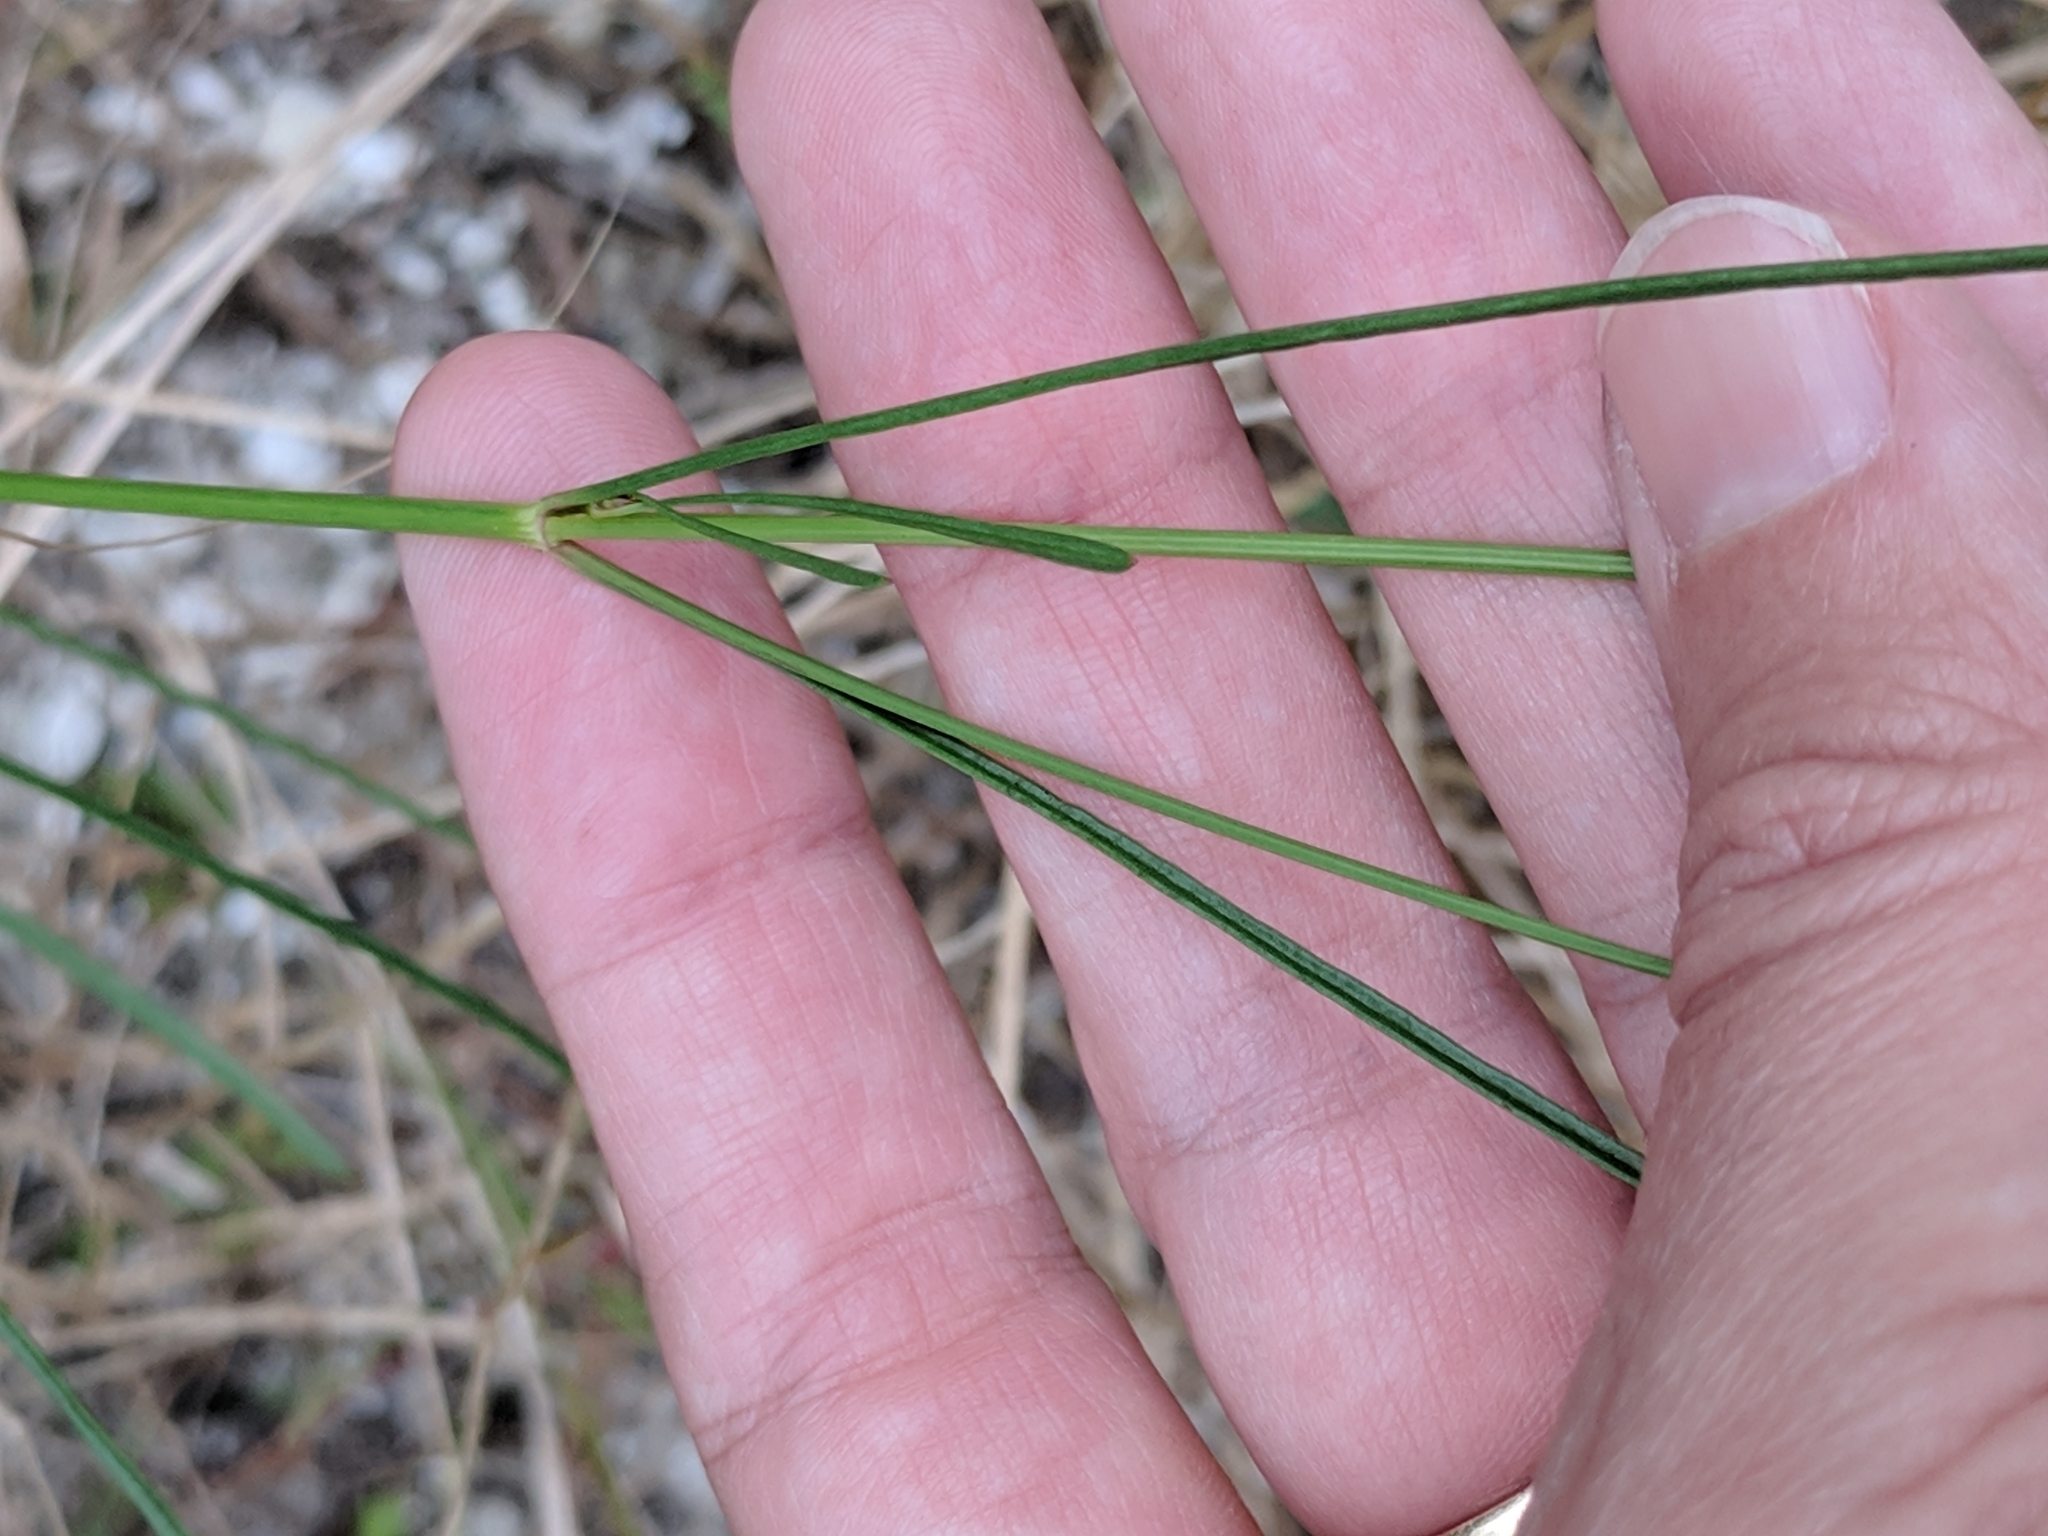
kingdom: Plantae
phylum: Tracheophyta
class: Magnoliopsida
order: Asterales
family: Asteraceae
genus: Coreopsis
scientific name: Coreopsis leavenworthii
